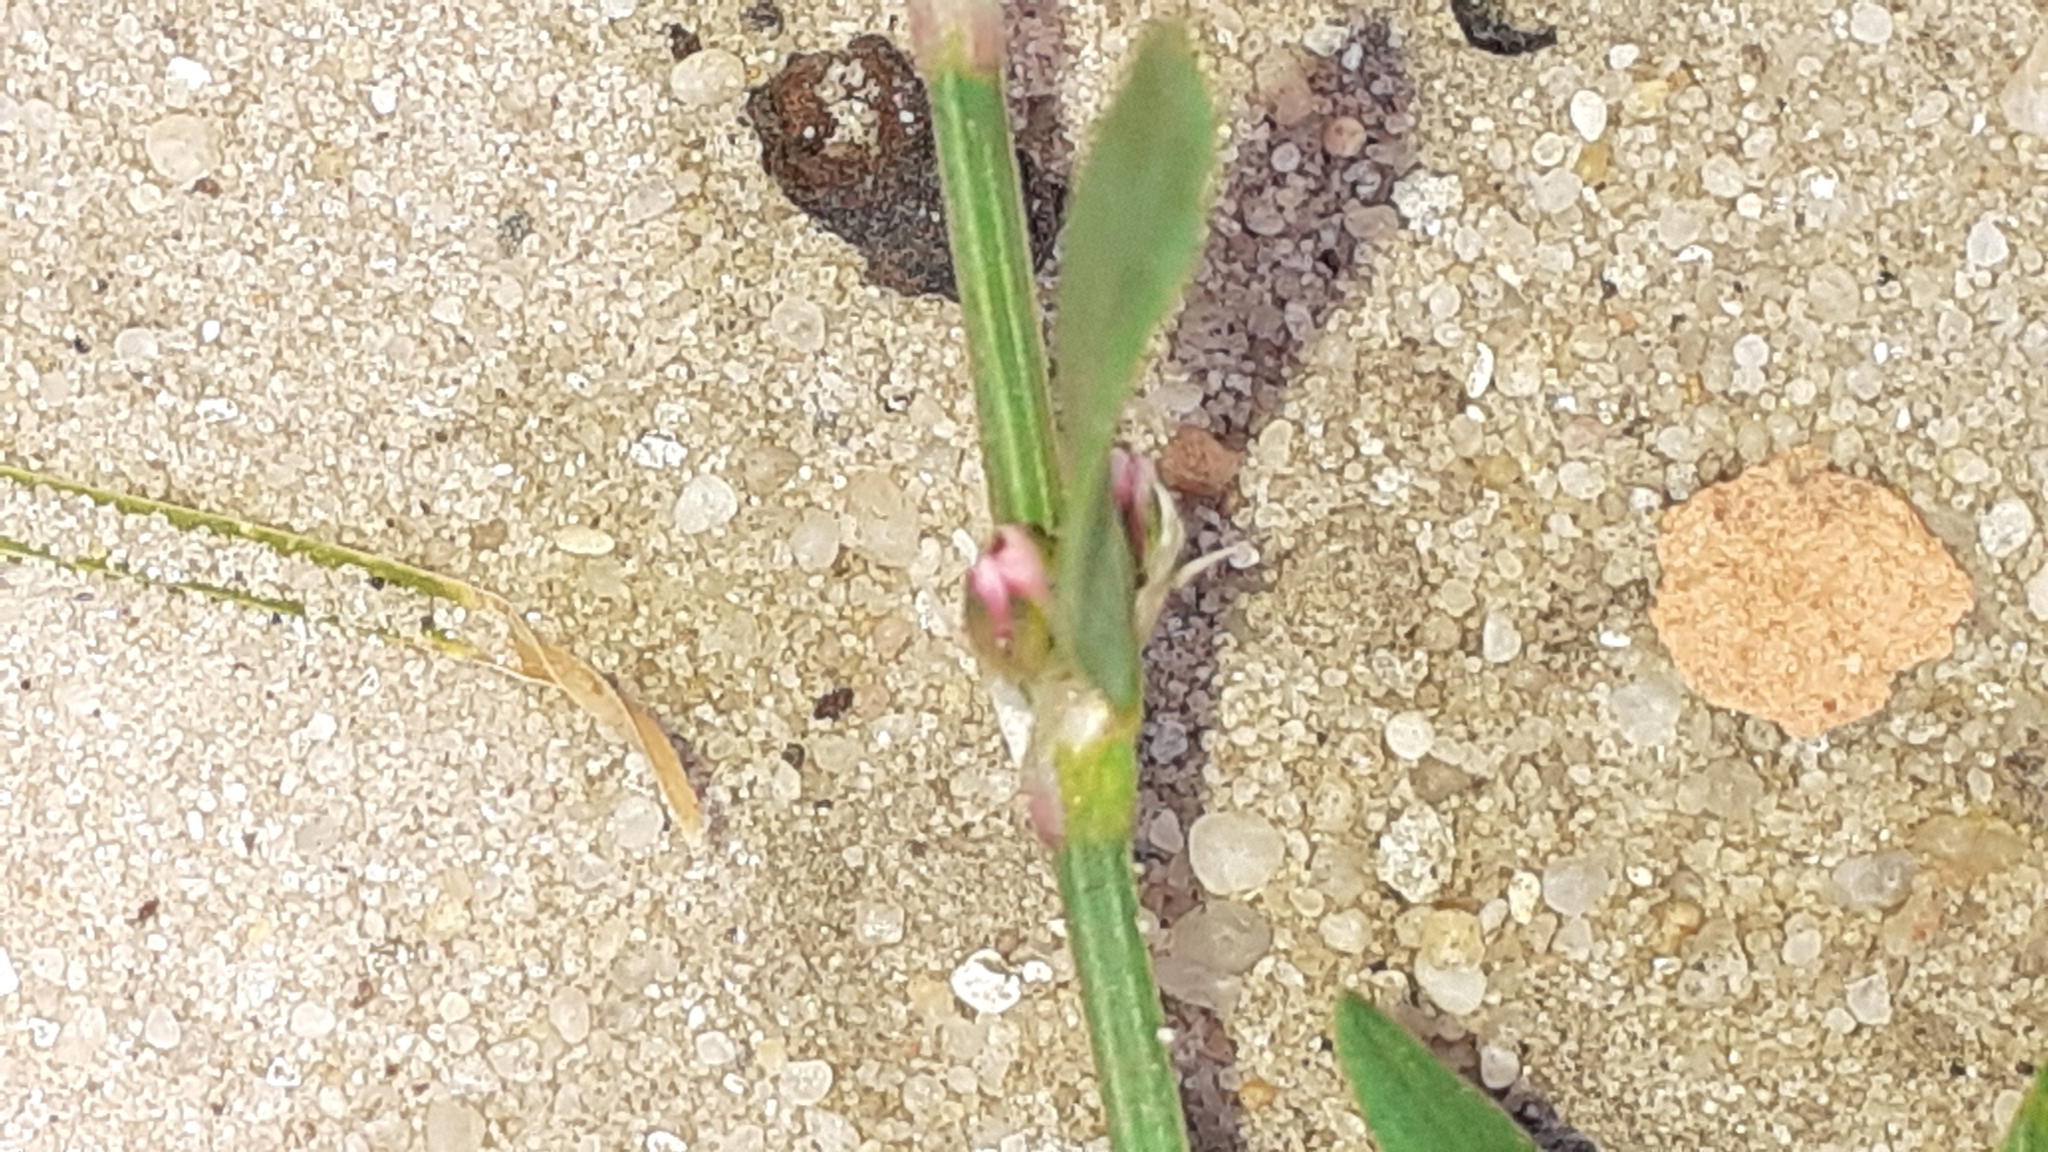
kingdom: Plantae
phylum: Tracheophyta
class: Magnoliopsida
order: Caryophyllales
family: Polygonaceae
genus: Polygonum
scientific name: Polygonum aviculare
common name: Prostrate knotweed
